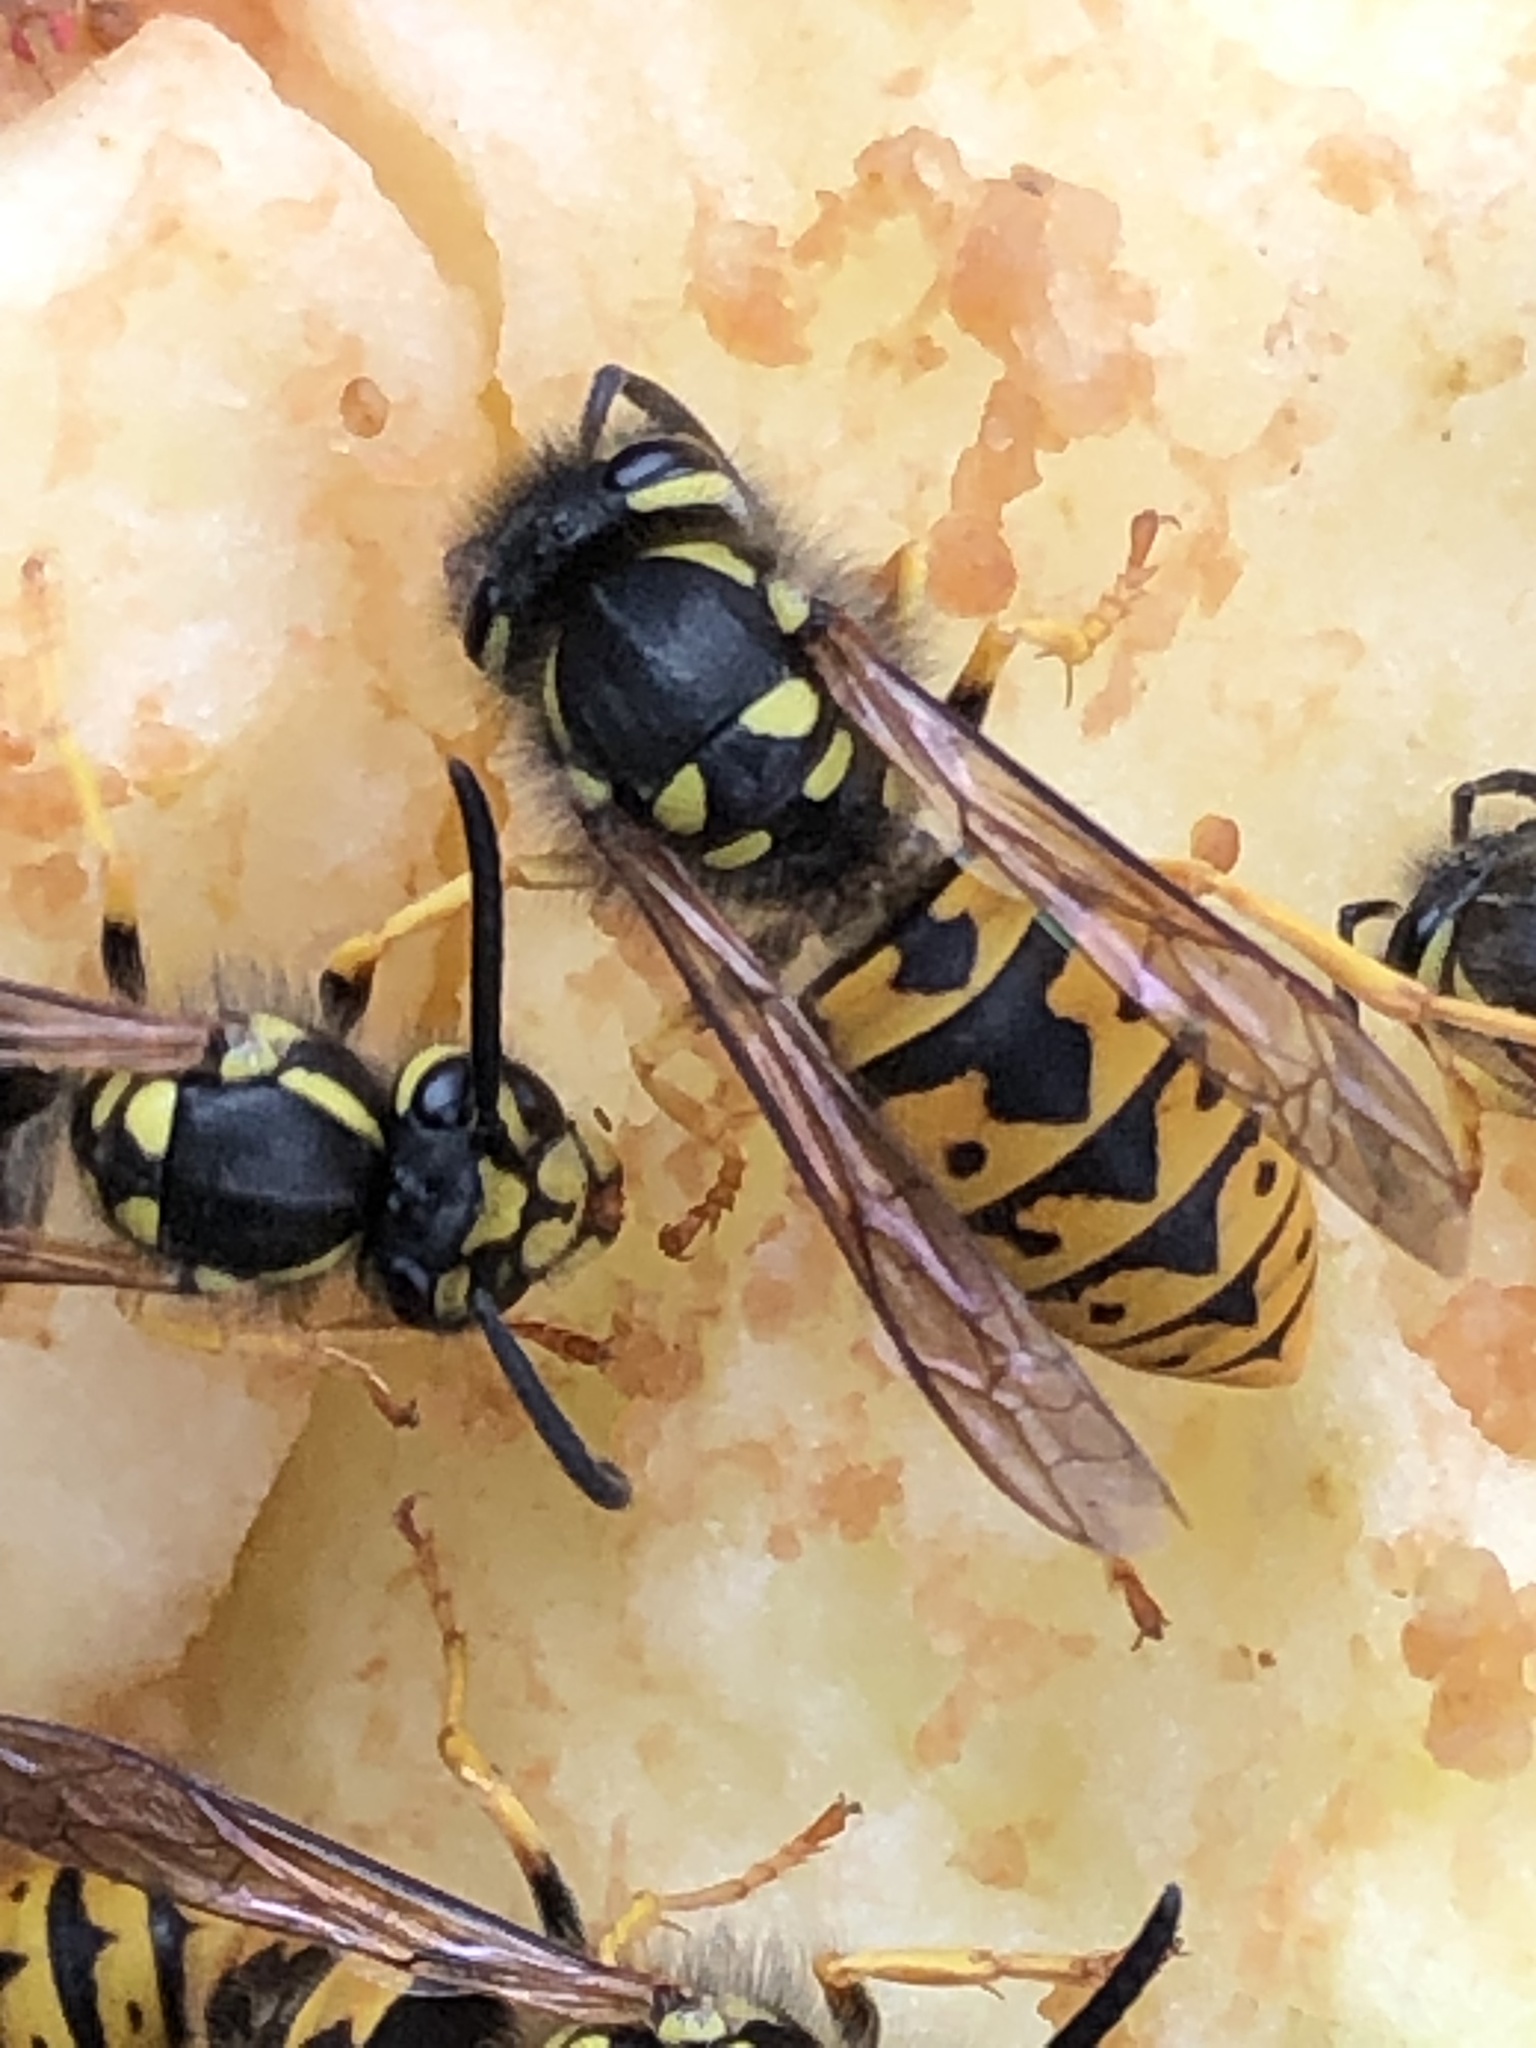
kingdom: Animalia
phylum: Arthropoda
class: Insecta
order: Hymenoptera
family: Vespidae
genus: Vespula
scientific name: Vespula germanica
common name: German wasp
